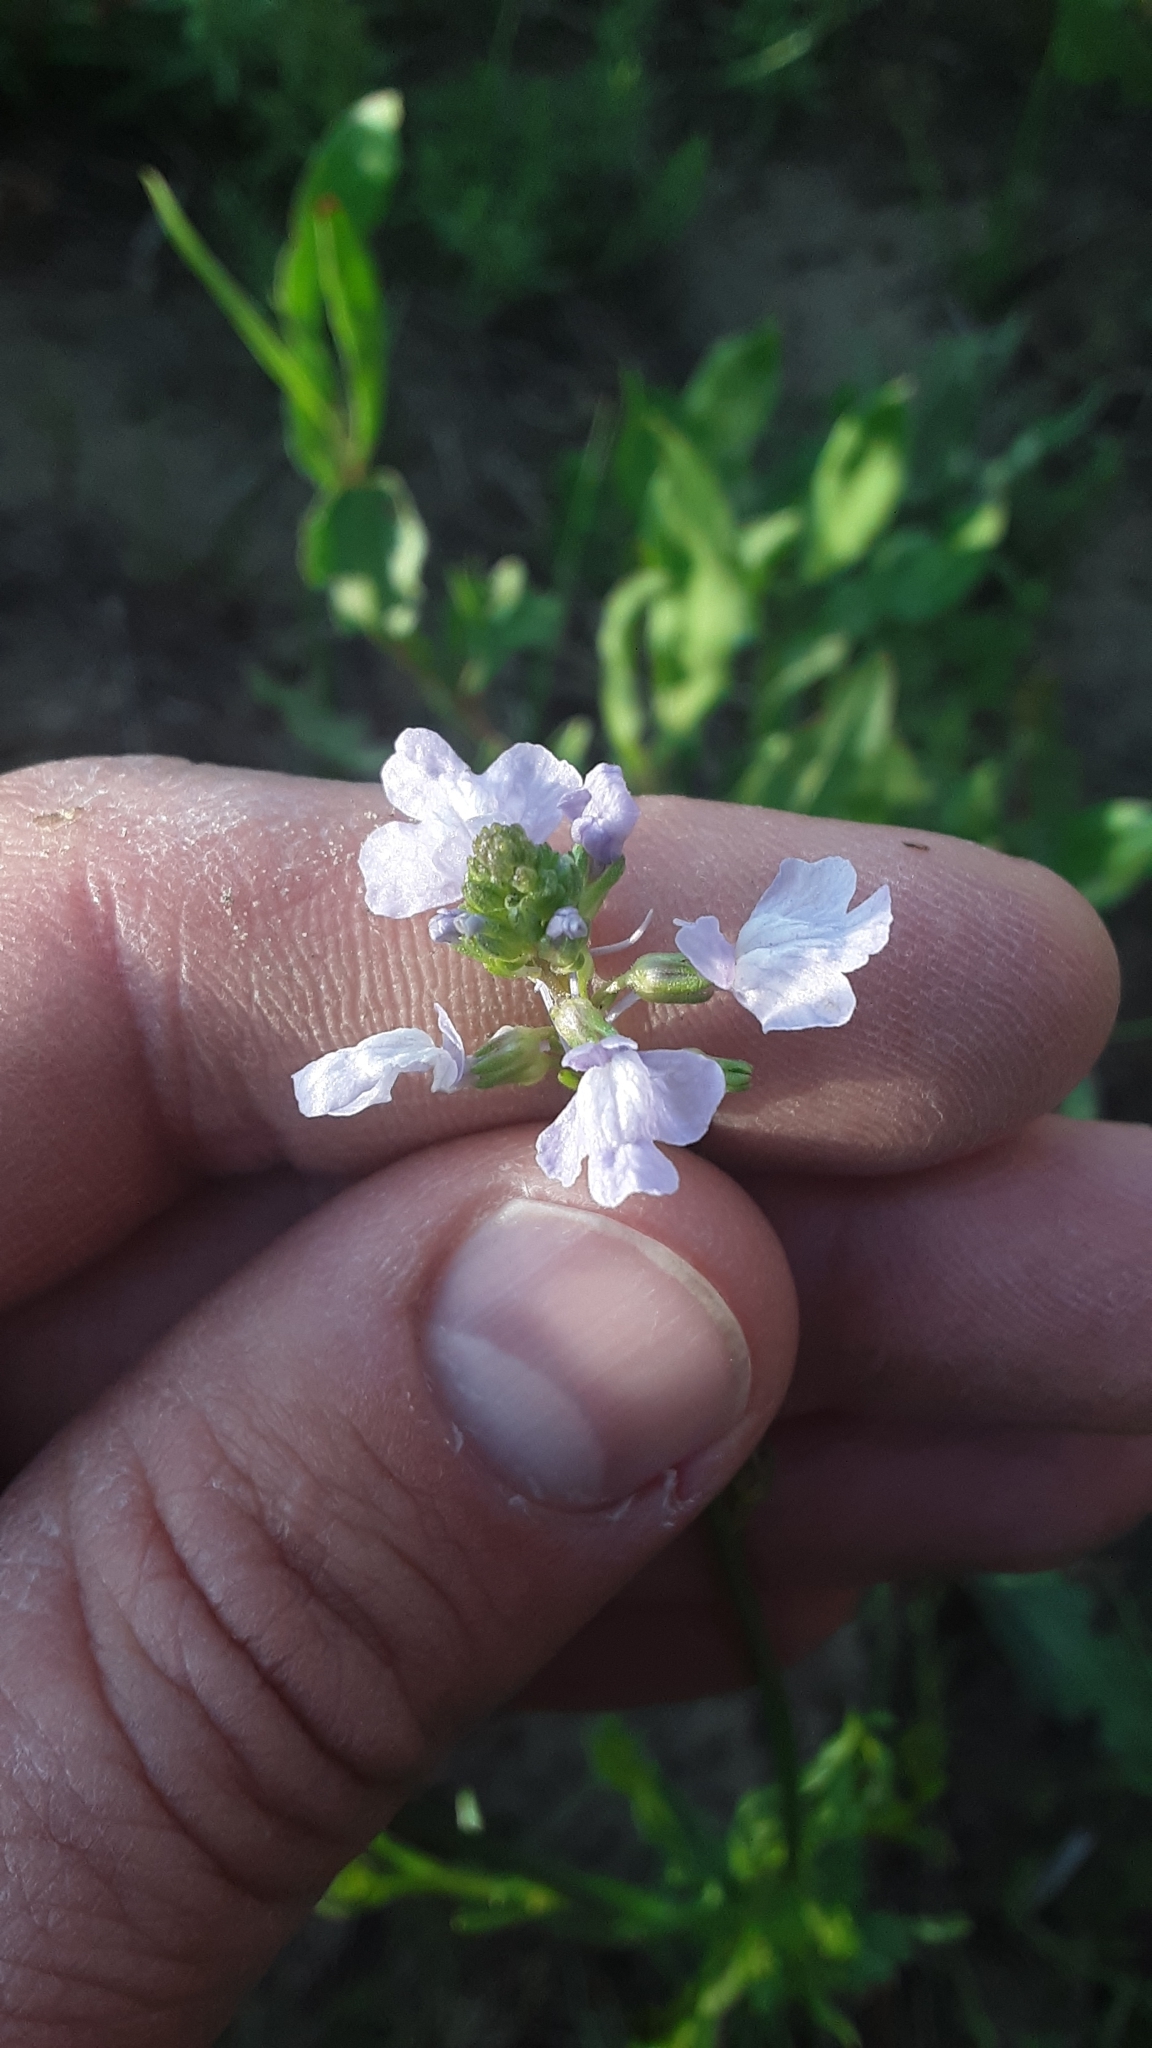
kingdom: Plantae
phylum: Tracheophyta
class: Magnoliopsida
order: Lamiales
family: Plantaginaceae
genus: Nuttallanthus
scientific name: Nuttallanthus texanus
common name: Texas toadflax
